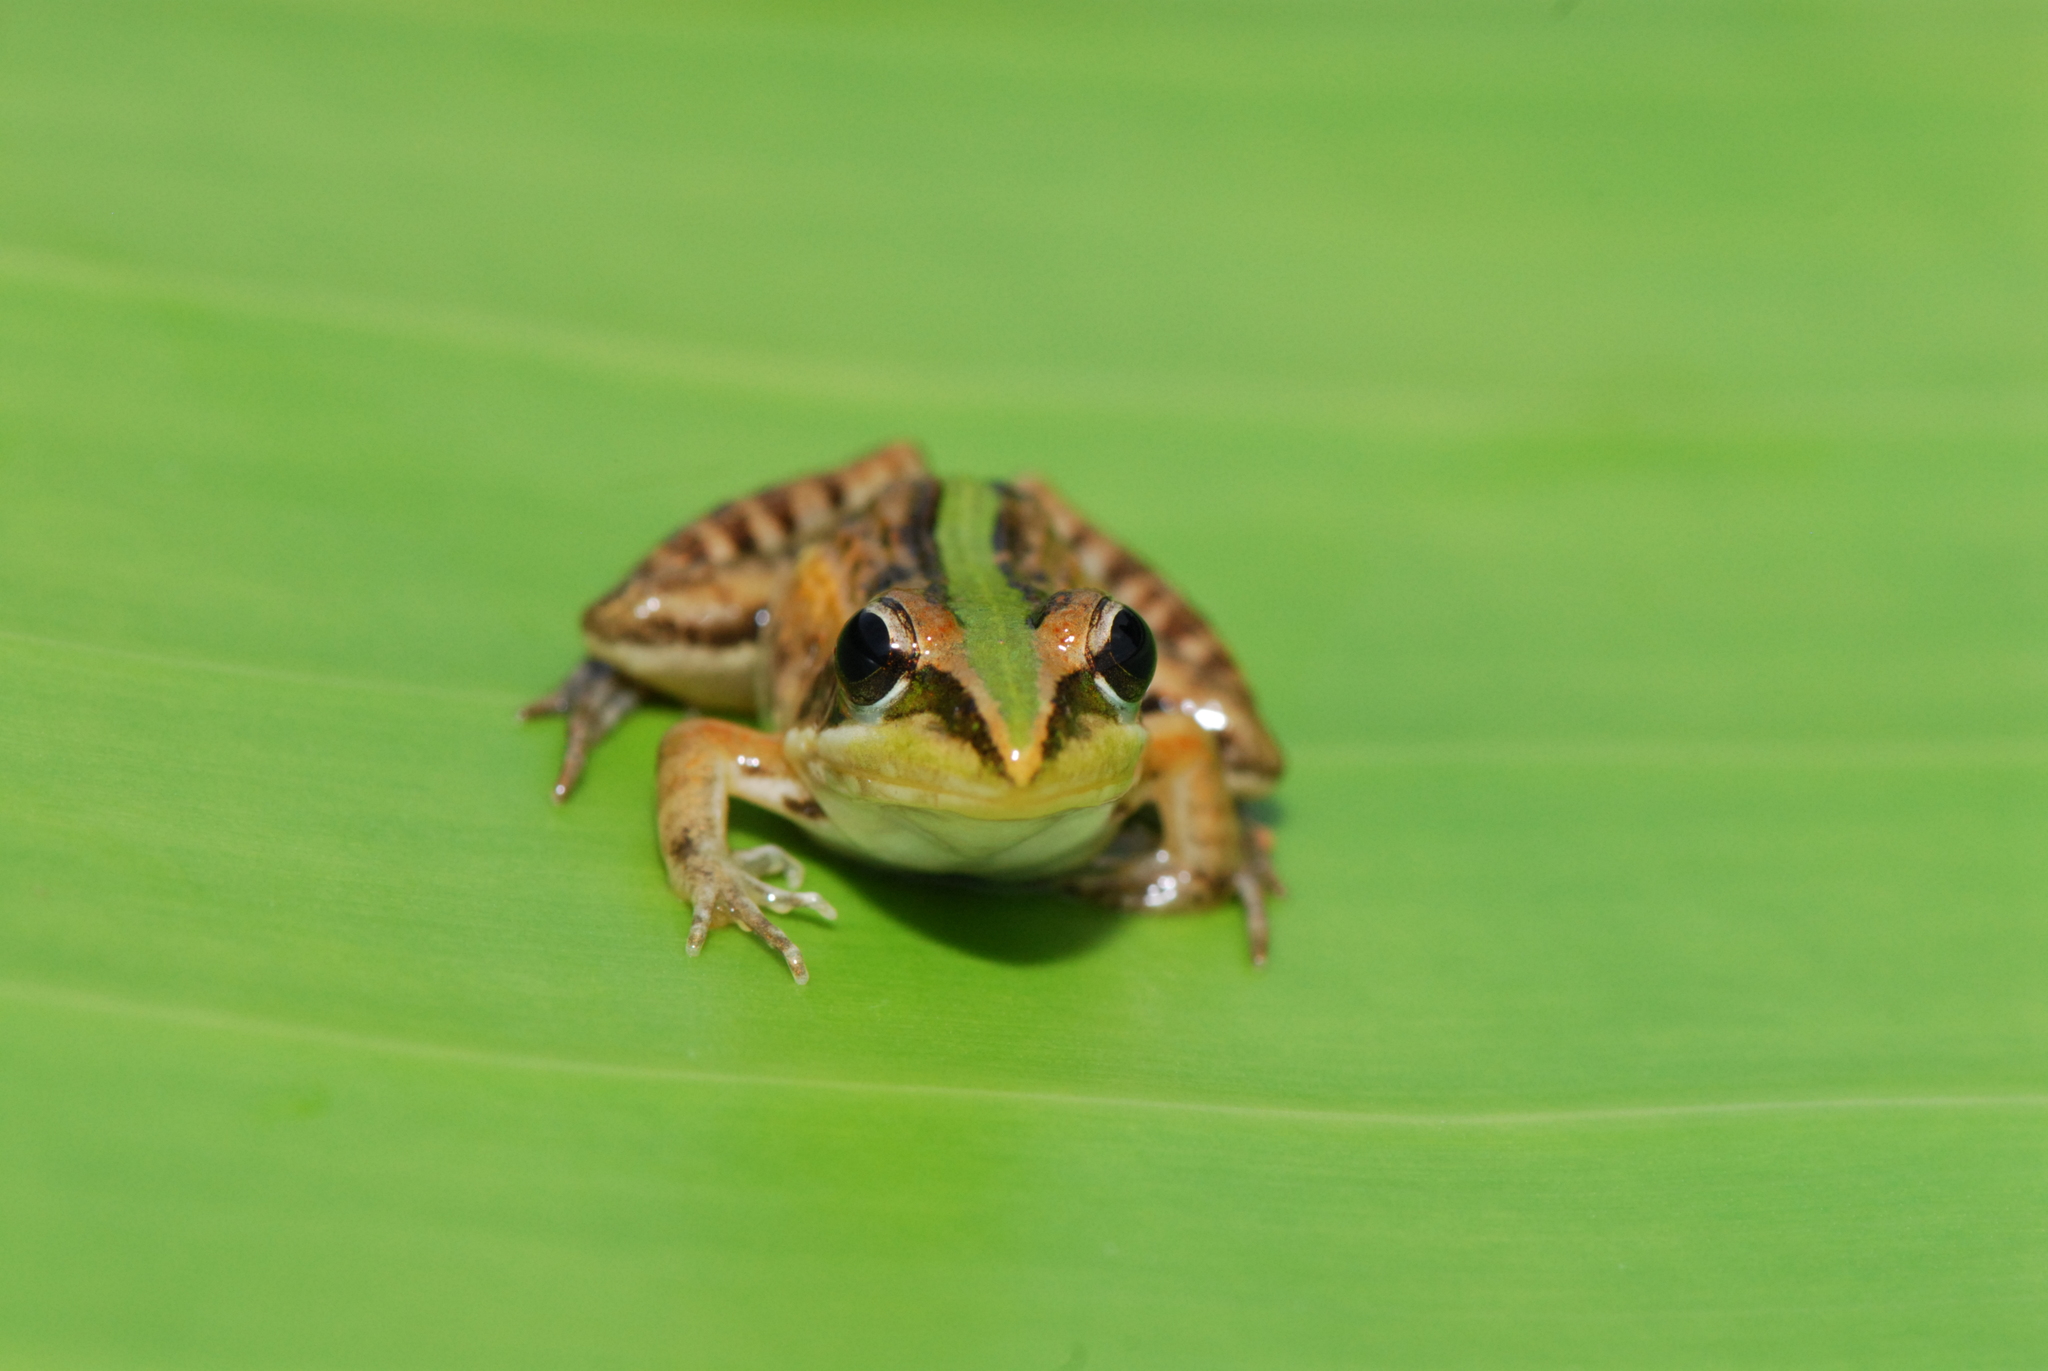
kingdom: Animalia
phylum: Chordata
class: Amphibia
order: Anura
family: Ptychadenidae
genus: Ptychadena
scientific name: Ptychadena mascareniensis
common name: Mascarene grass frog
